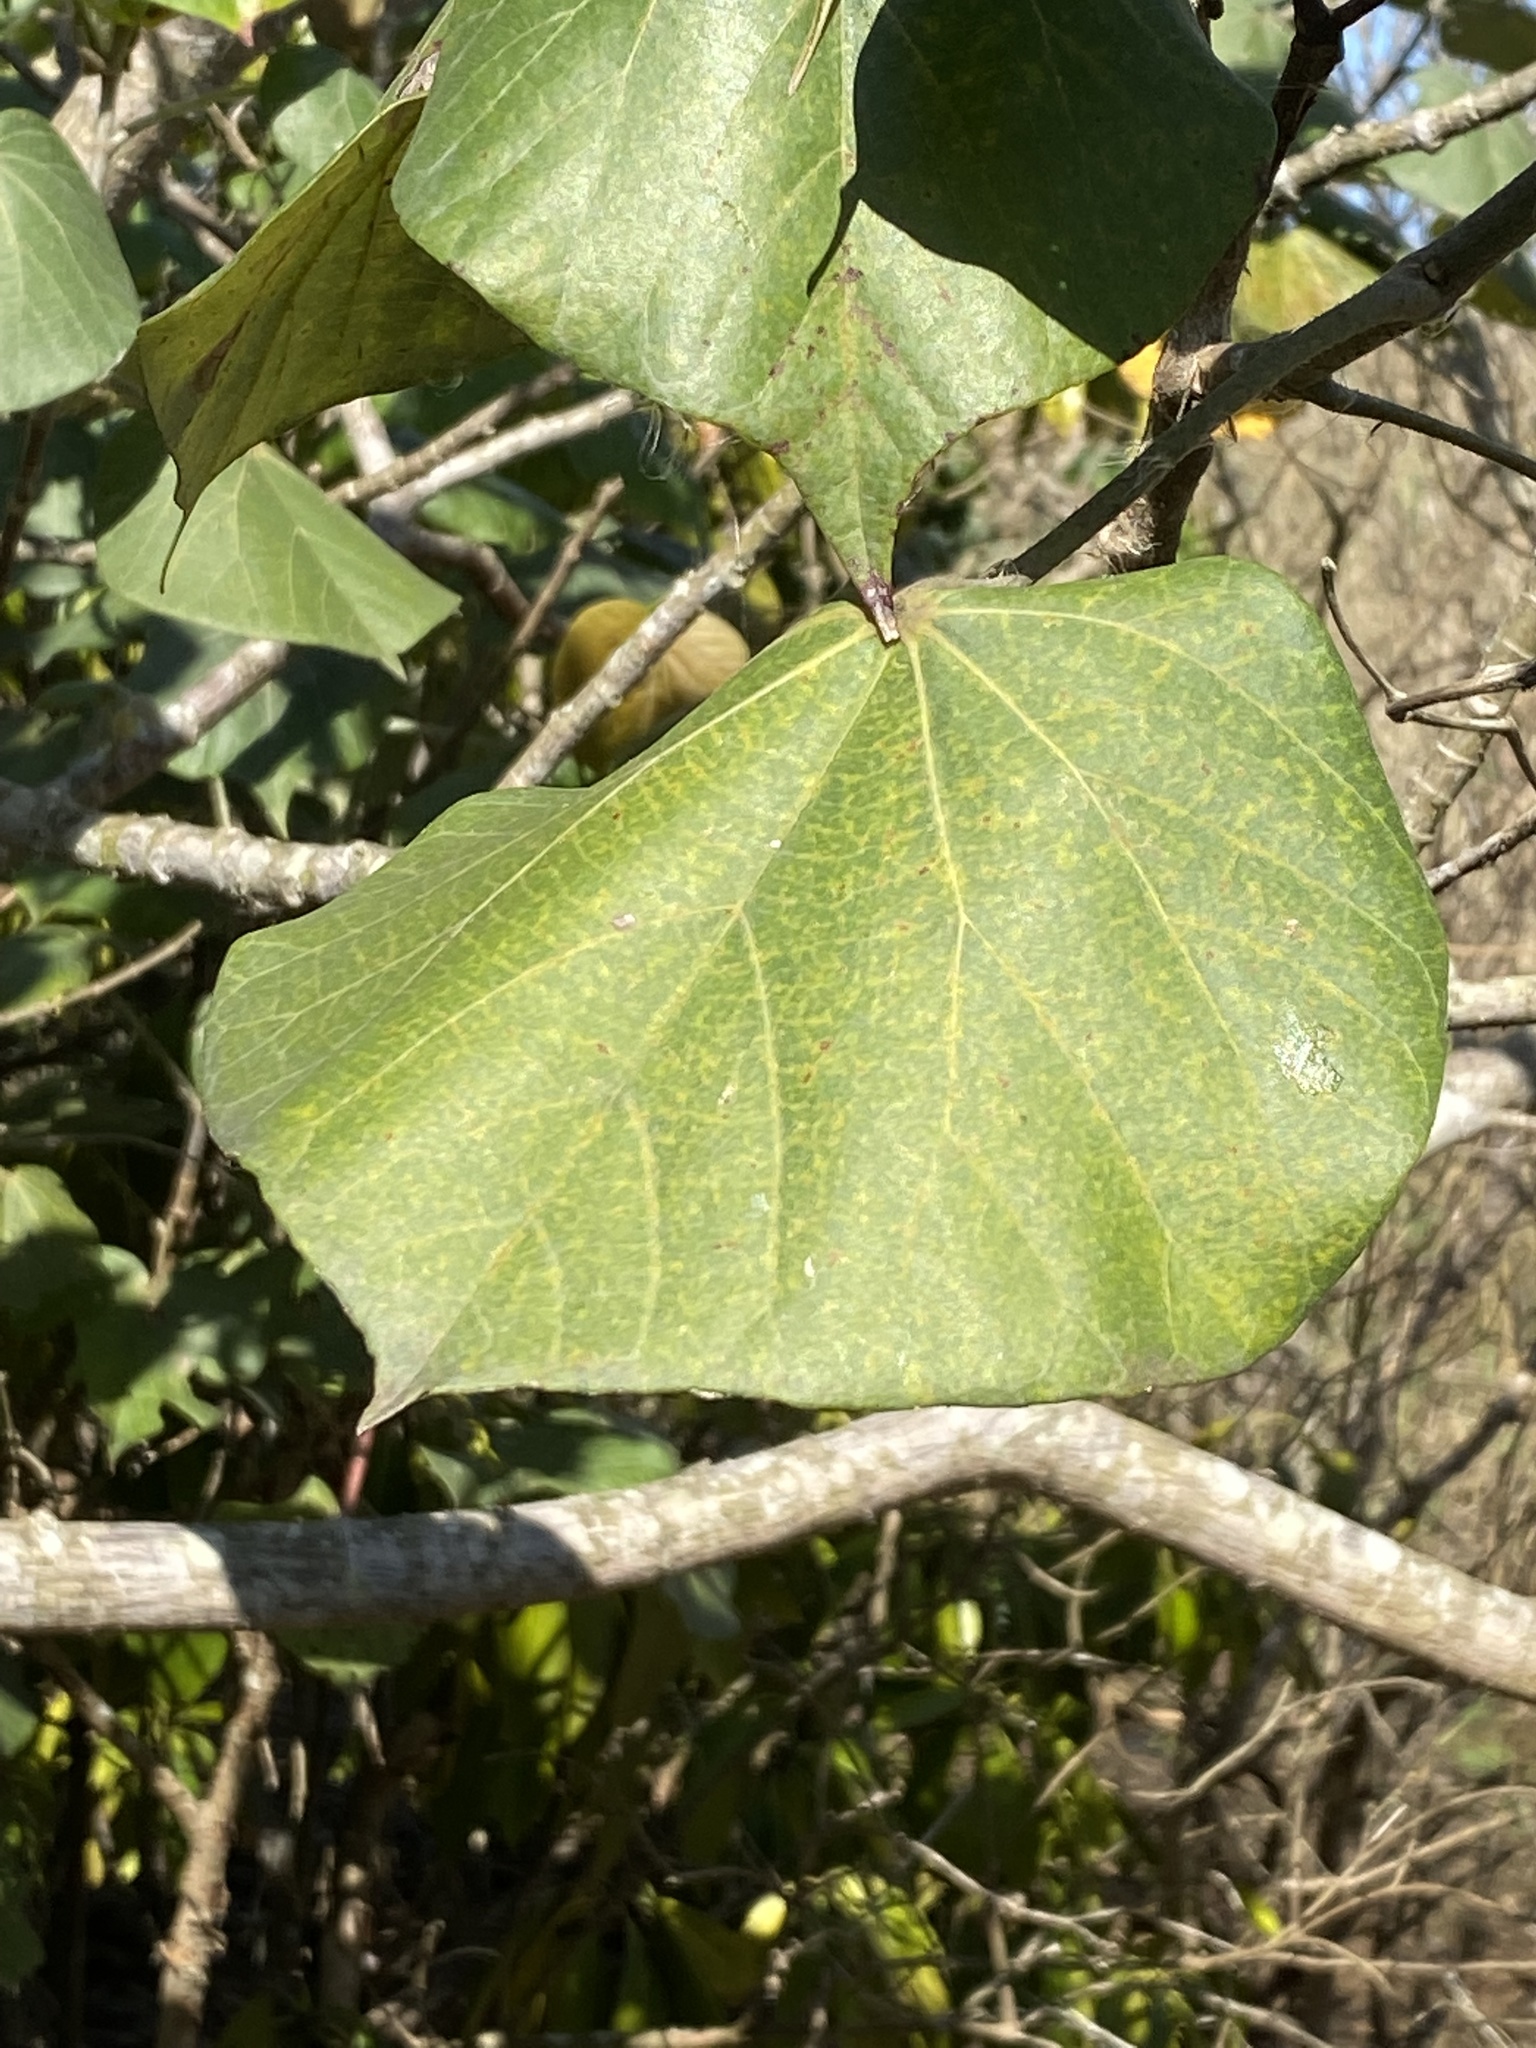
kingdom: Plantae
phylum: Tracheophyta
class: Magnoliopsida
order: Malvales
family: Malvaceae
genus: Talipariti
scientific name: Talipariti tiliaceum
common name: Sea hibiscus
